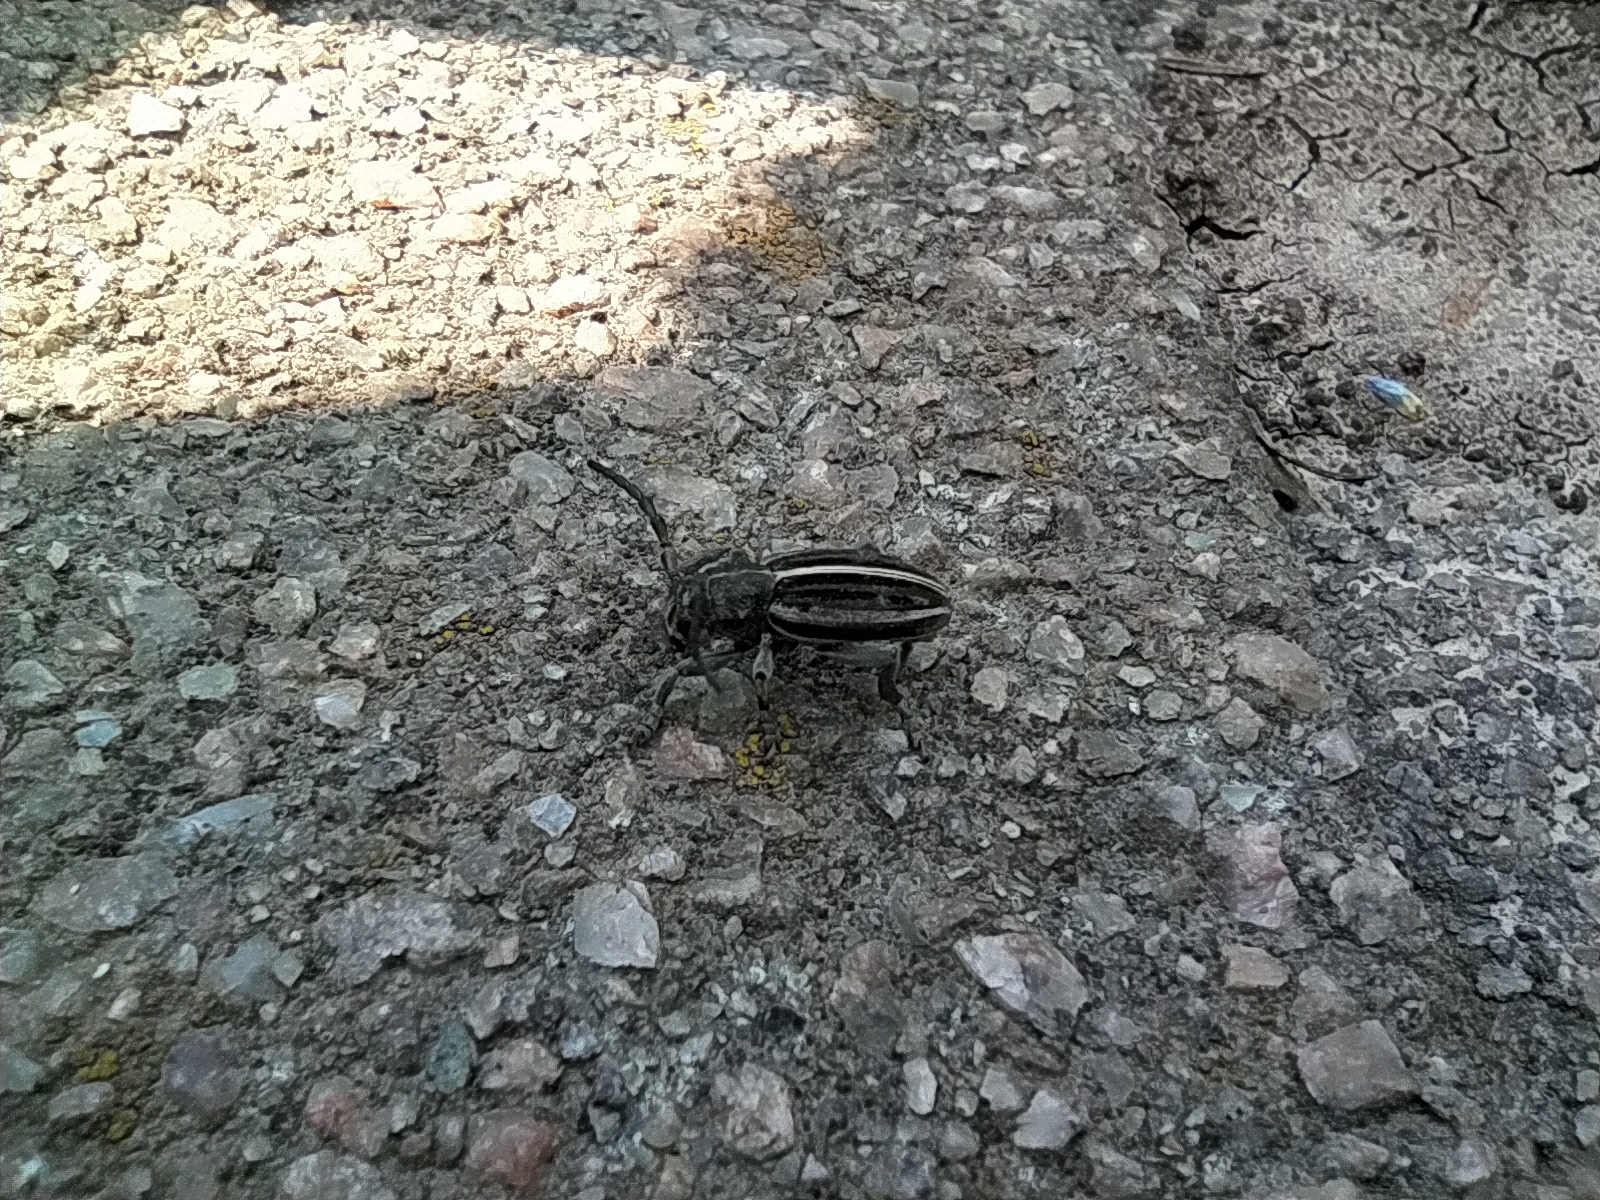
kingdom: Animalia
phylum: Arthropoda
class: Insecta
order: Coleoptera
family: Cerambycidae
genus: Dorcadion
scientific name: Dorcadion holosericeum
